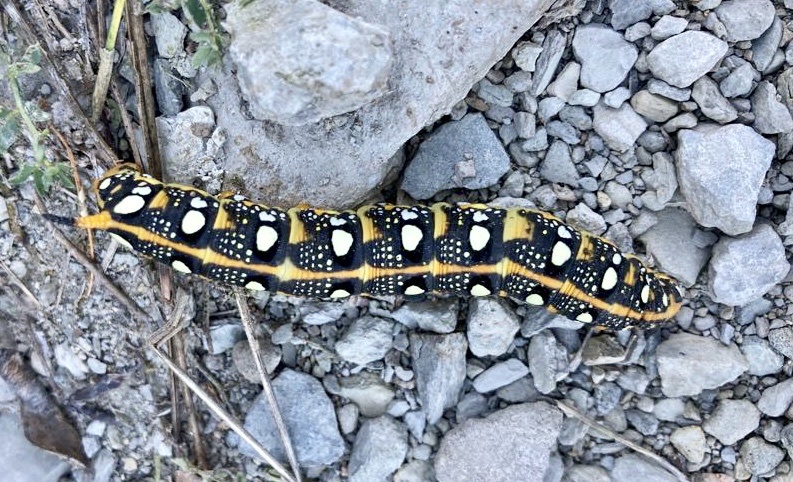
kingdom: Animalia
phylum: Arthropoda
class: Insecta
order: Lepidoptera
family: Sphingidae
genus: Hyles
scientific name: Hyles euphorbiae
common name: Spurge hawk-moth
